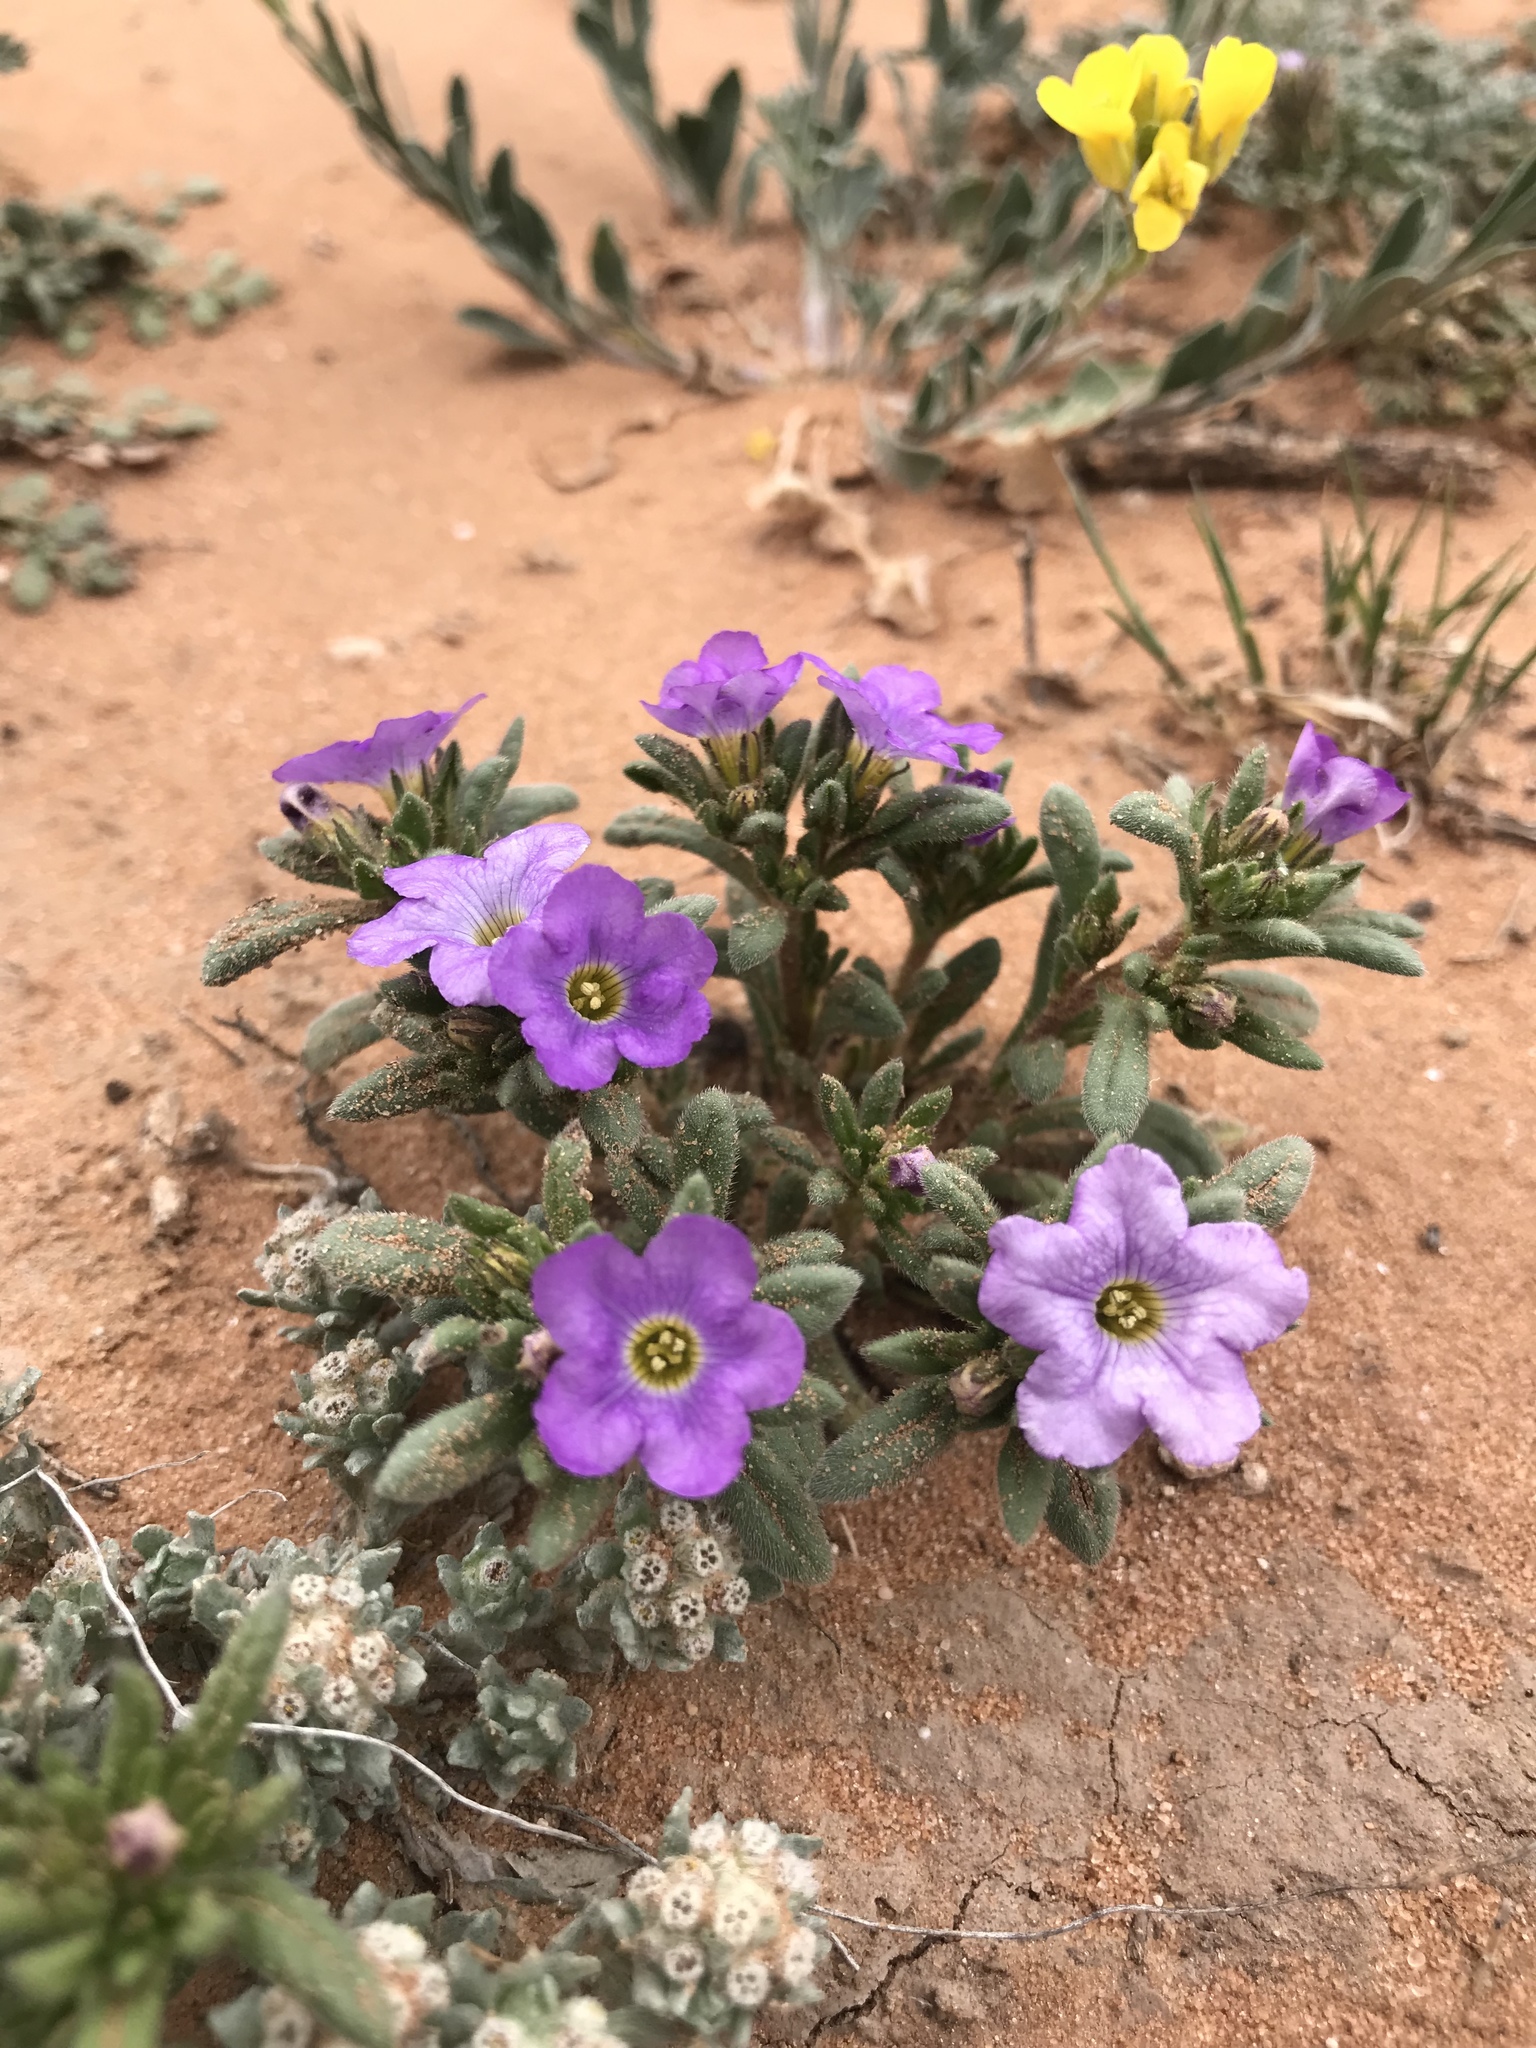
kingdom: Plantae
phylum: Tracheophyta
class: Magnoliopsida
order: Boraginales
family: Namaceae
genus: Nama
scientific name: Nama hispida
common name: Bristly nama
